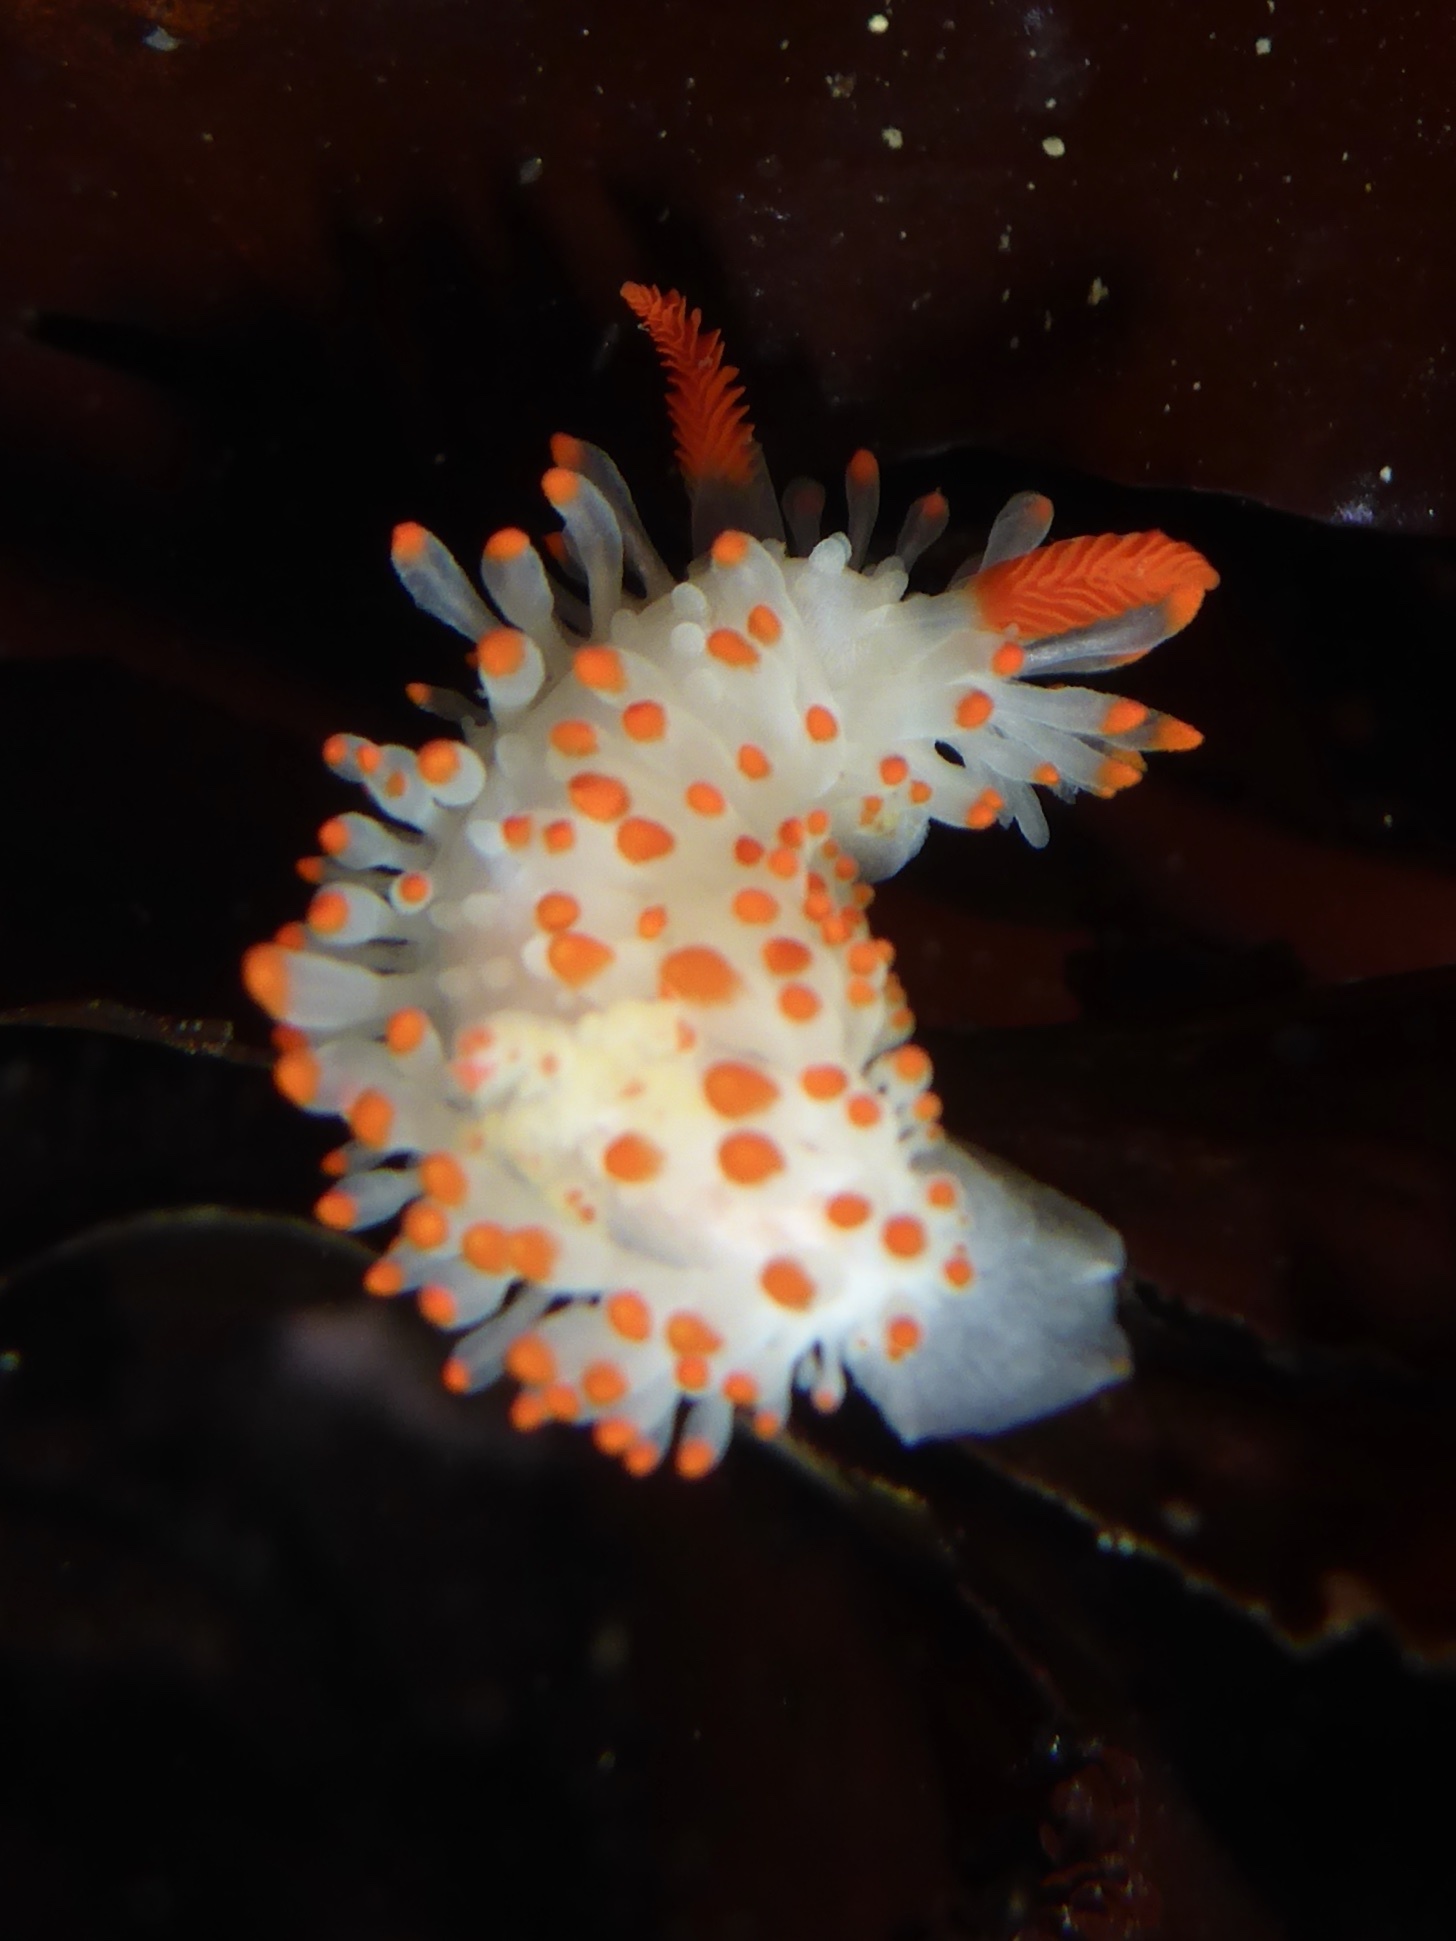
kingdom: Animalia
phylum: Mollusca
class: Gastropoda
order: Nudibranchia
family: Polyceridae
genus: Limacia
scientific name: Limacia cockerelli
